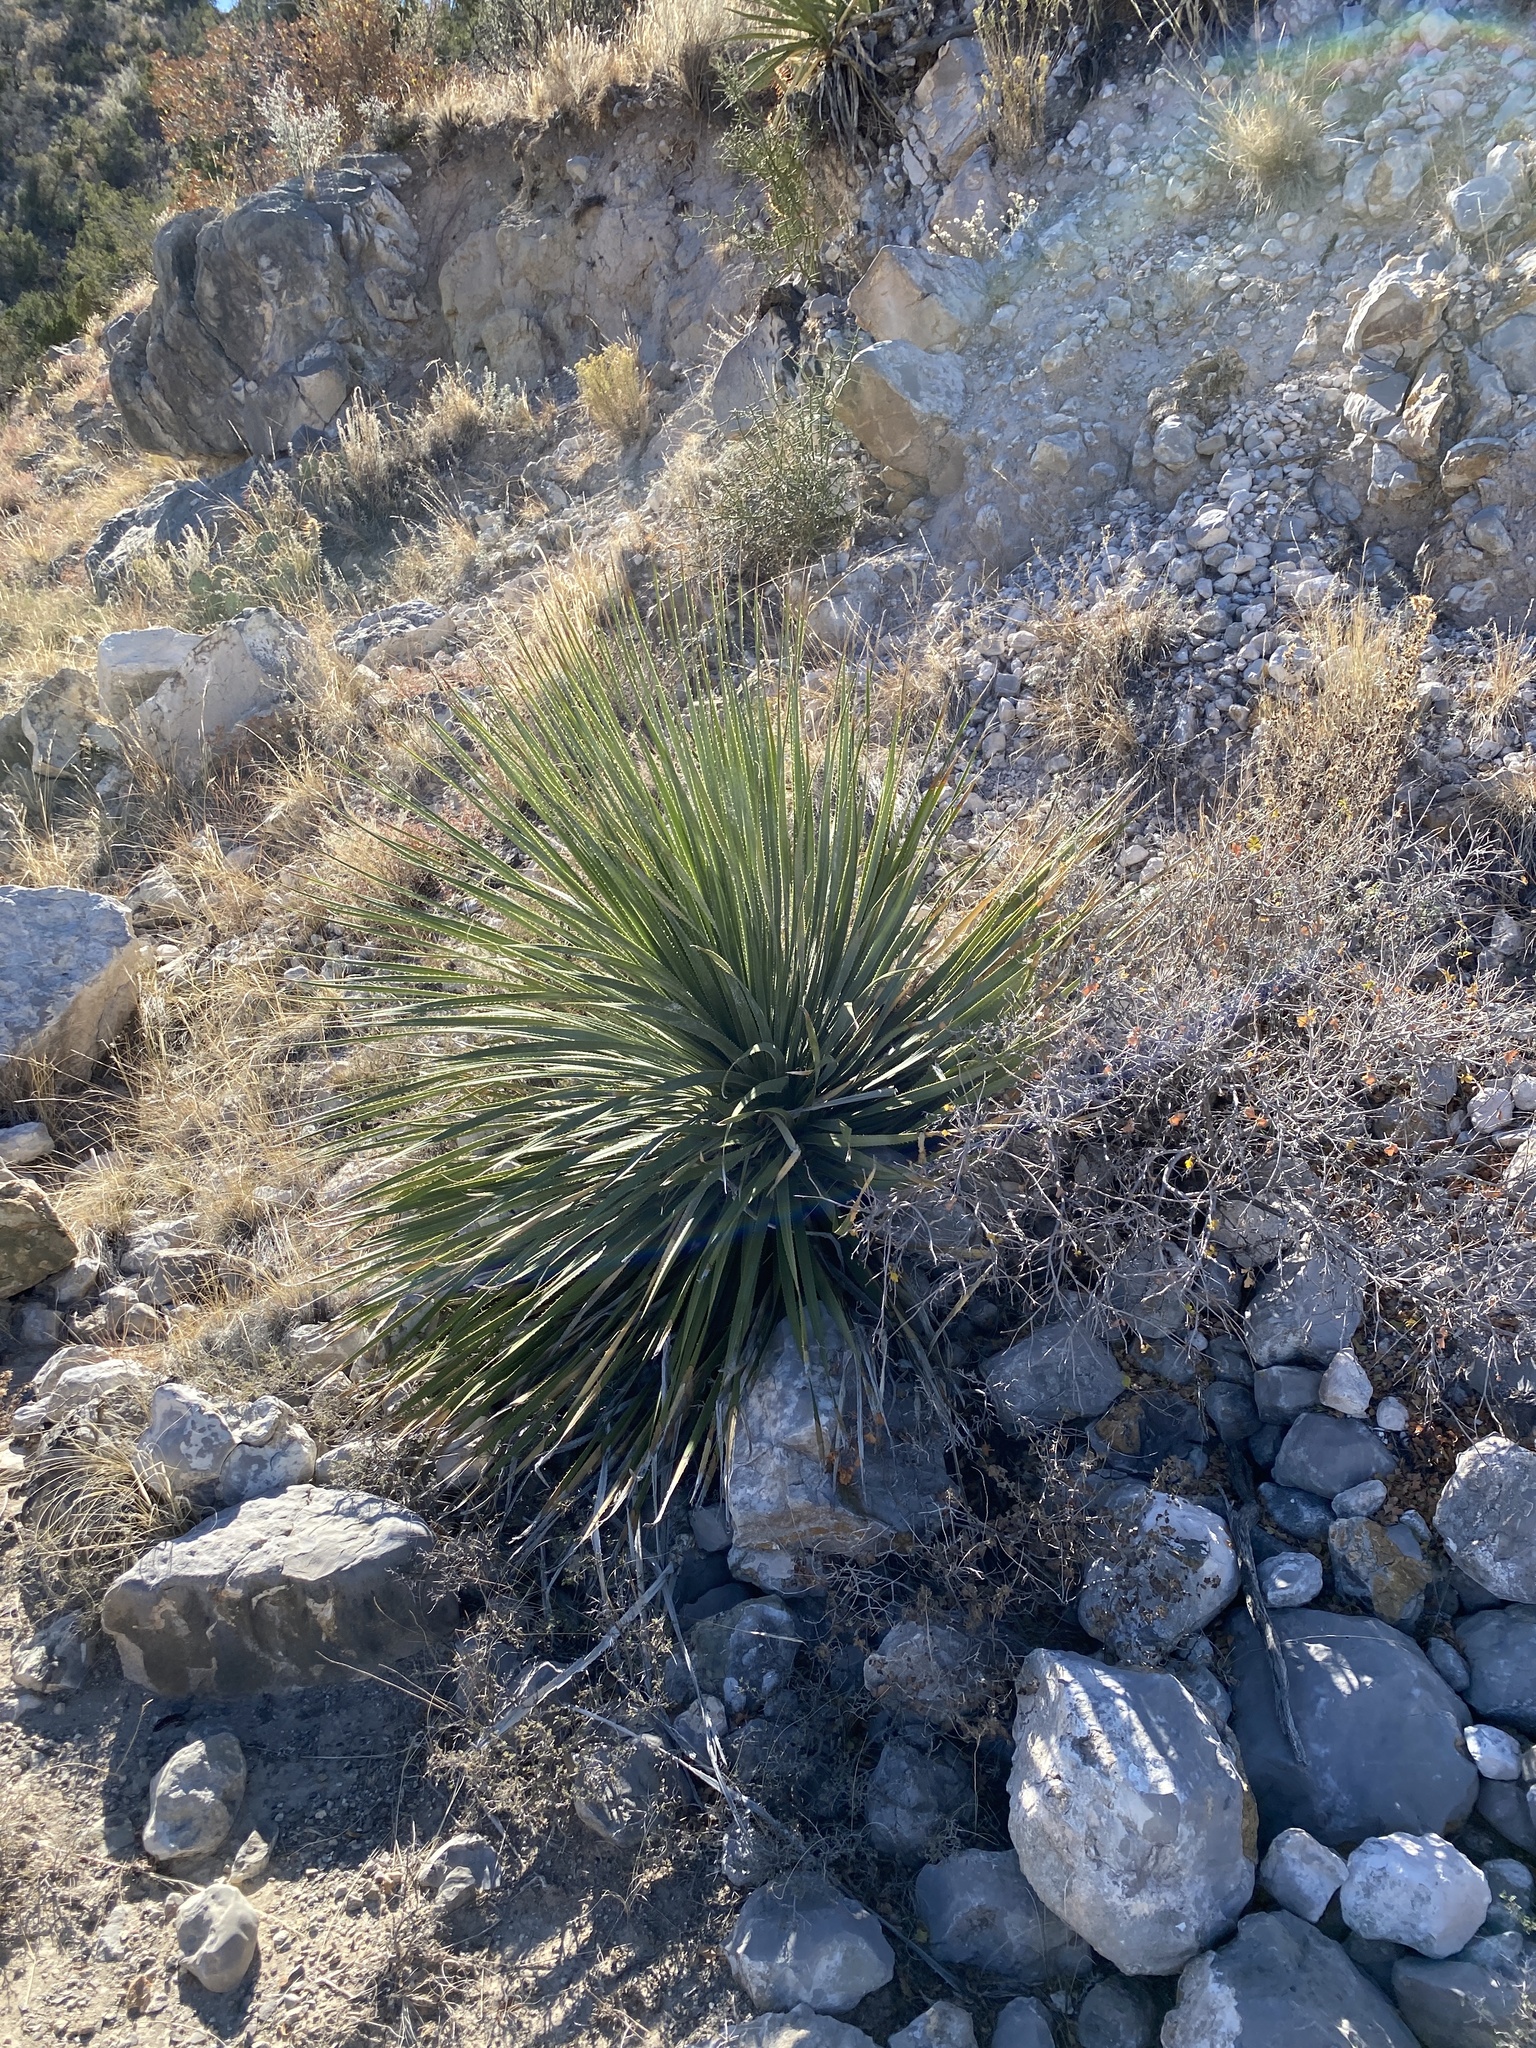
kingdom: Plantae
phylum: Tracheophyta
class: Liliopsida
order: Asparagales
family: Asparagaceae
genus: Dasylirion
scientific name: Dasylirion wheeleri
